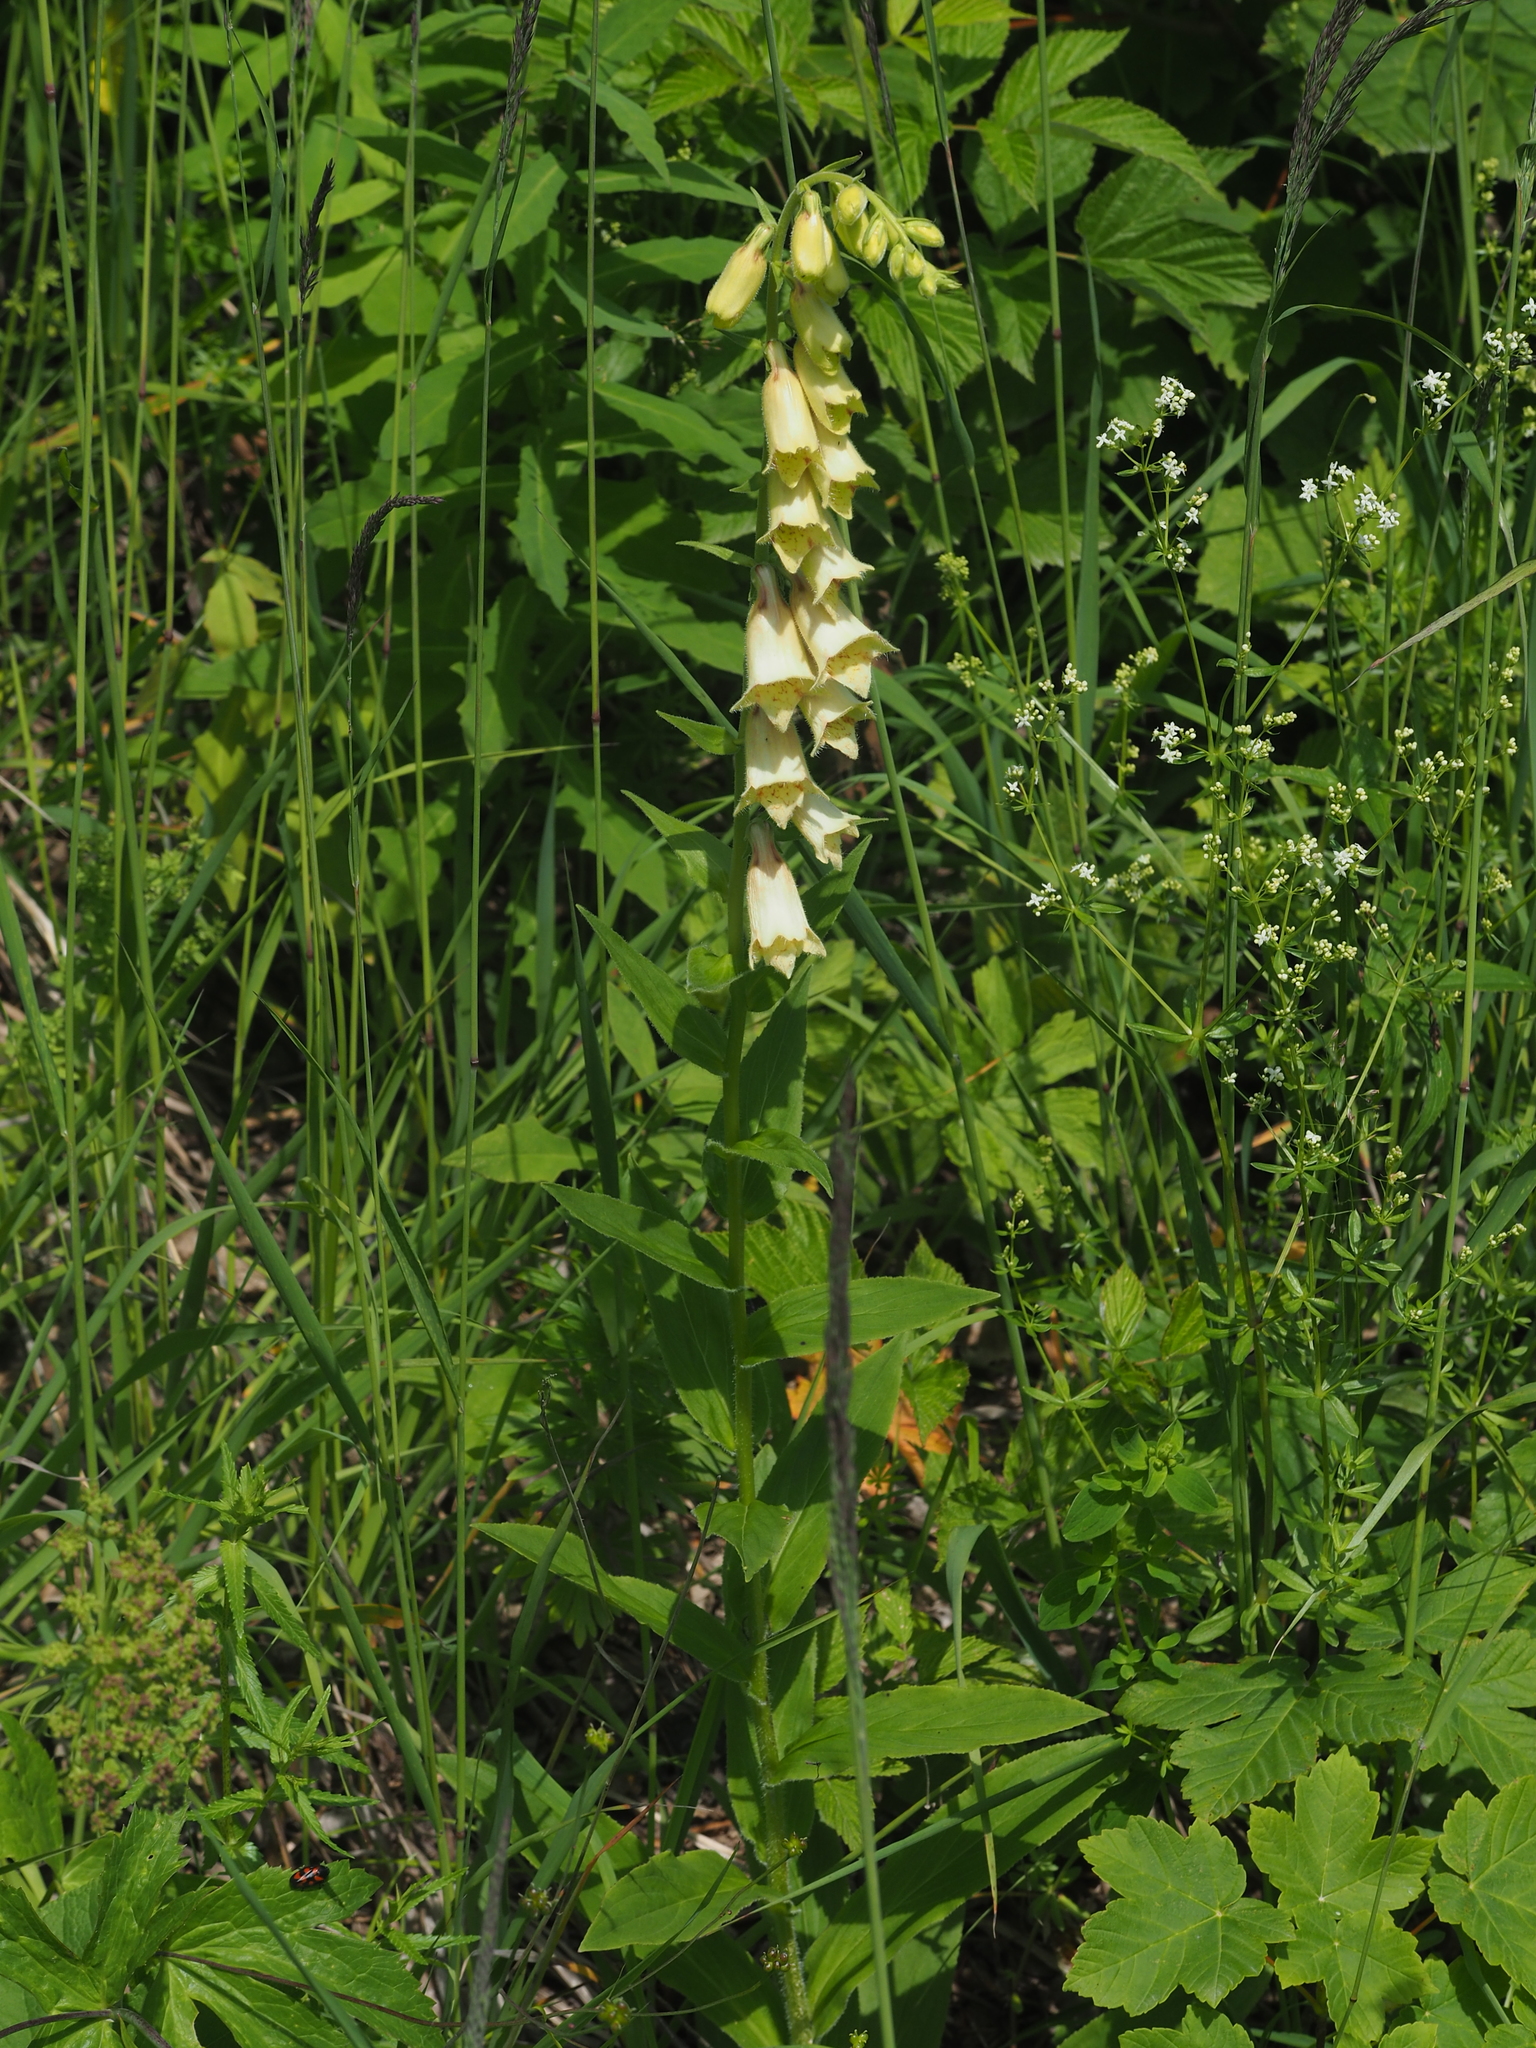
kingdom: Plantae
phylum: Tracheophyta
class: Magnoliopsida
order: Lamiales
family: Plantaginaceae
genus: Digitalis
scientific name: Digitalis grandiflora
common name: Yellow foxglove
